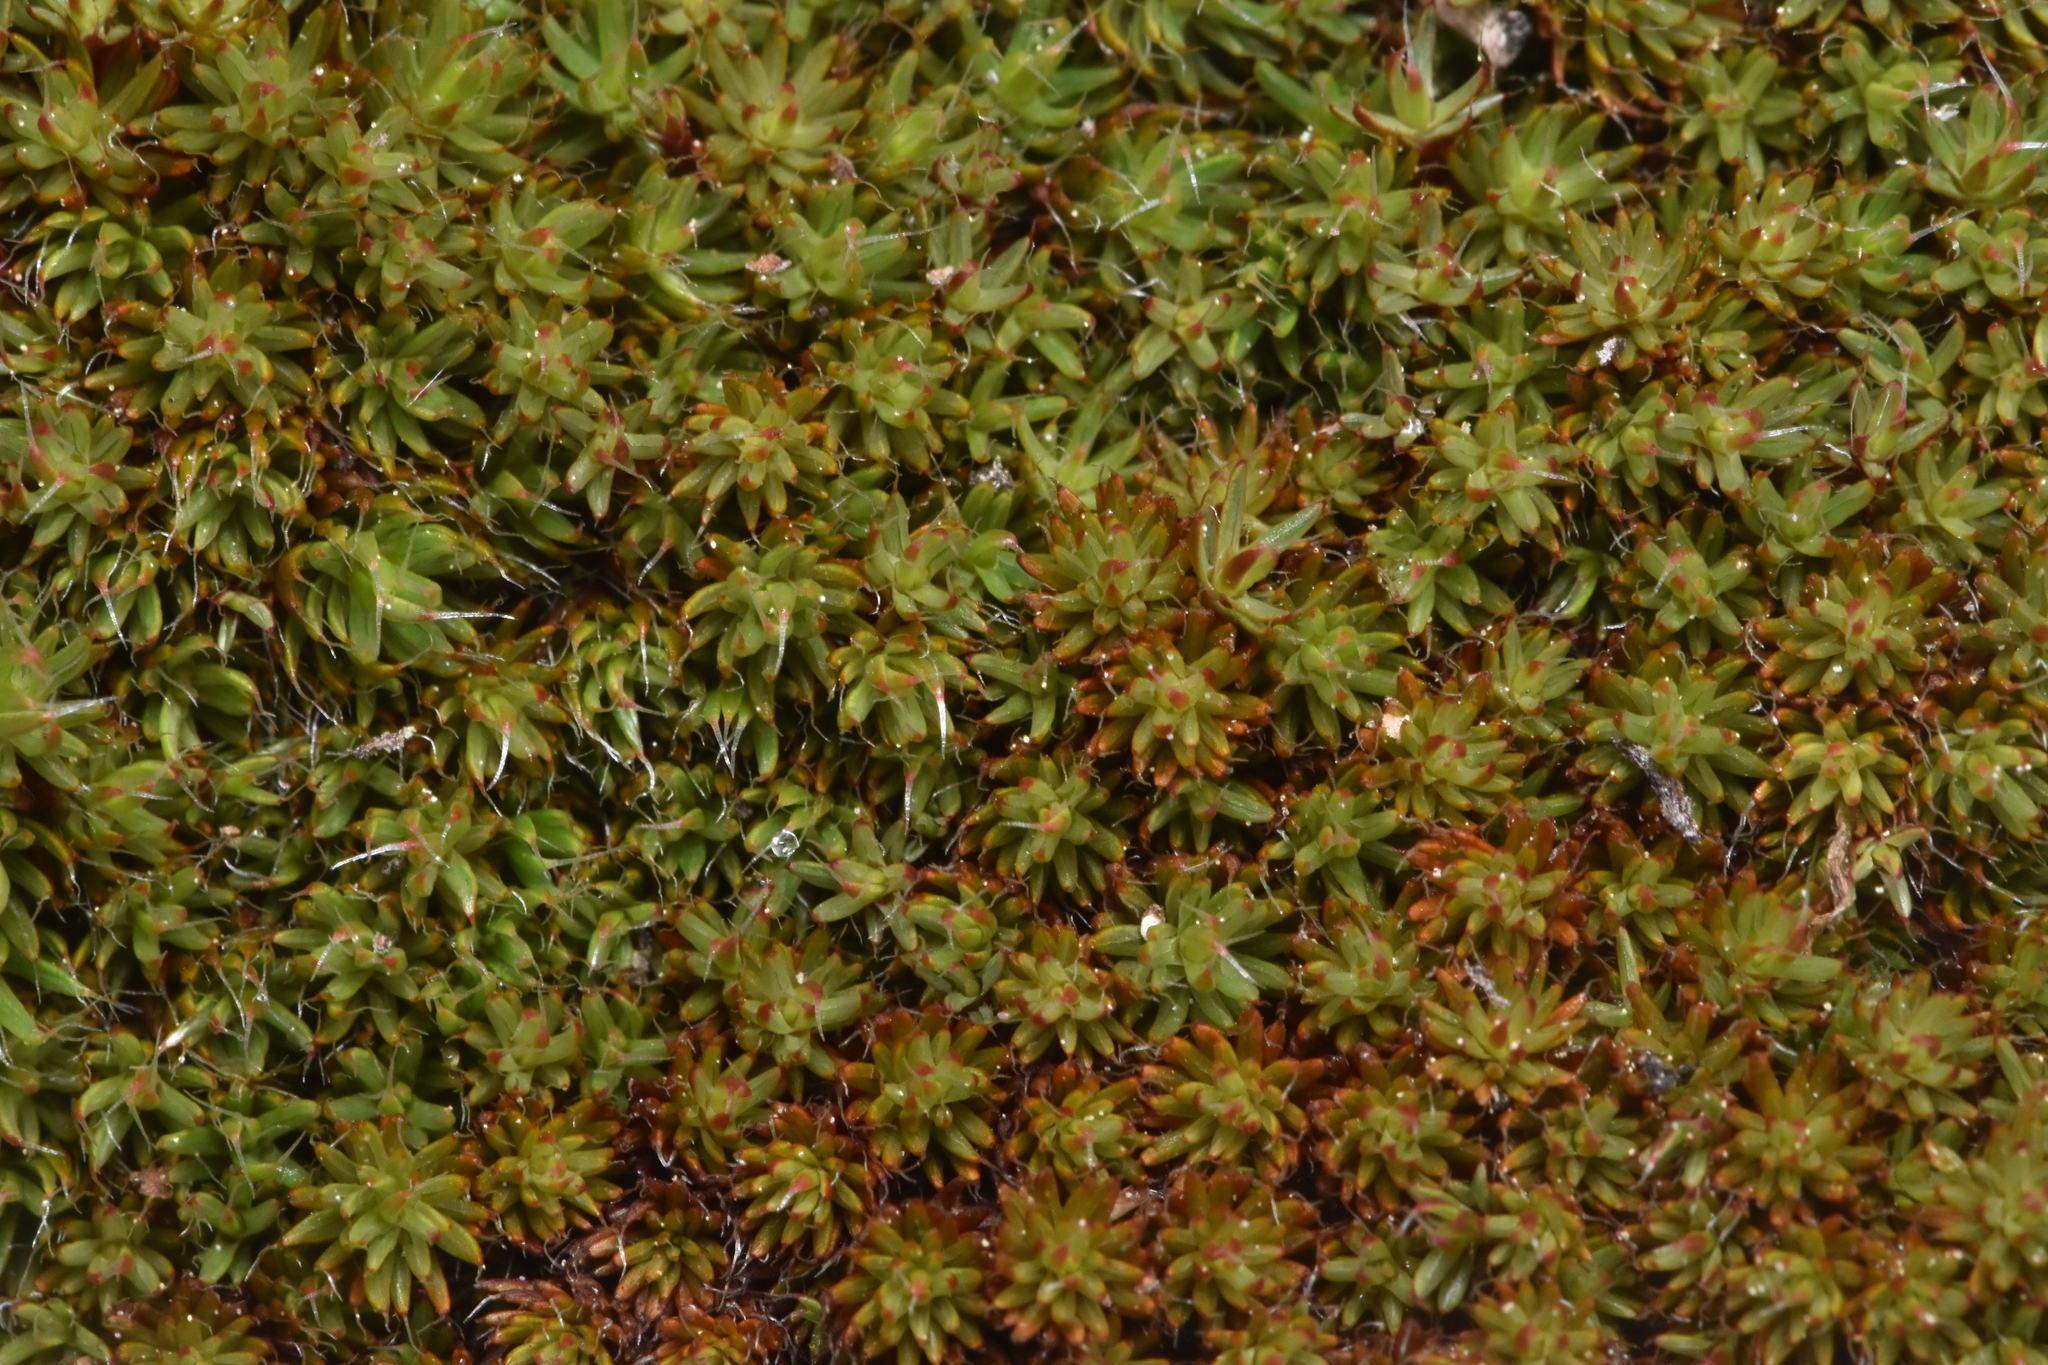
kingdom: Plantae
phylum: Bryophyta
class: Polytrichopsida
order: Polytrichales
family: Polytrichaceae
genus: Polytrichum
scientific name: Polytrichum piliferum
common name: Bristly haircap
